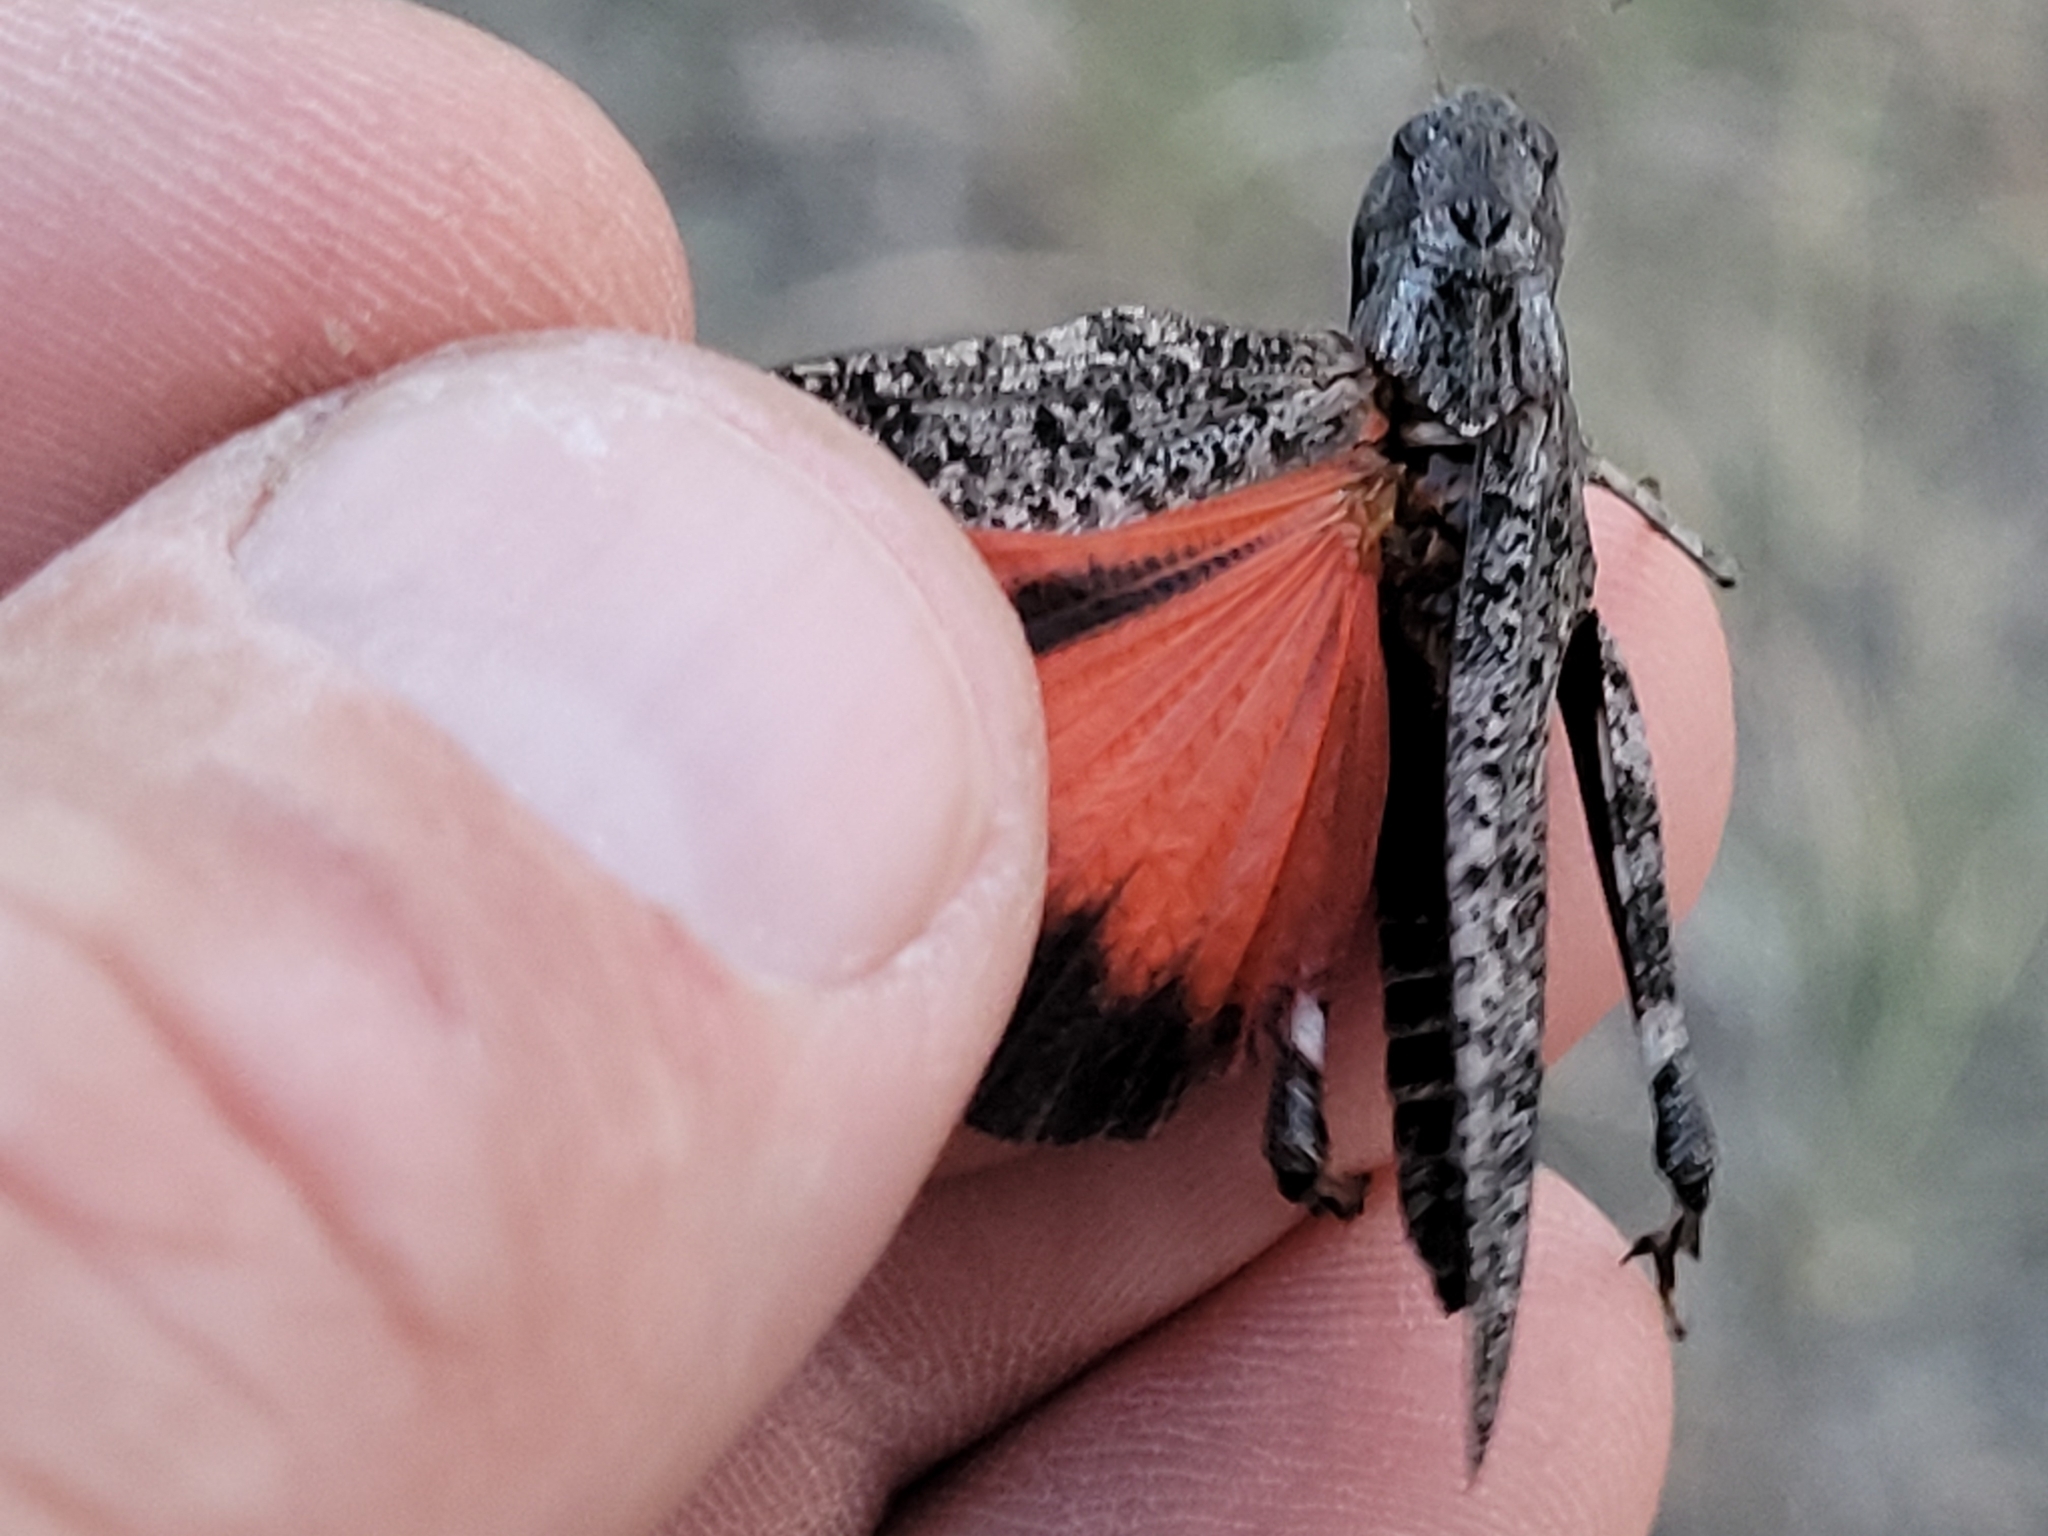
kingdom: Animalia
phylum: Arthropoda
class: Insecta
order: Orthoptera
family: Acrididae
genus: Arphia
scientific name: Arphia pseudo-nietana
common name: Red-winged grasshopper
